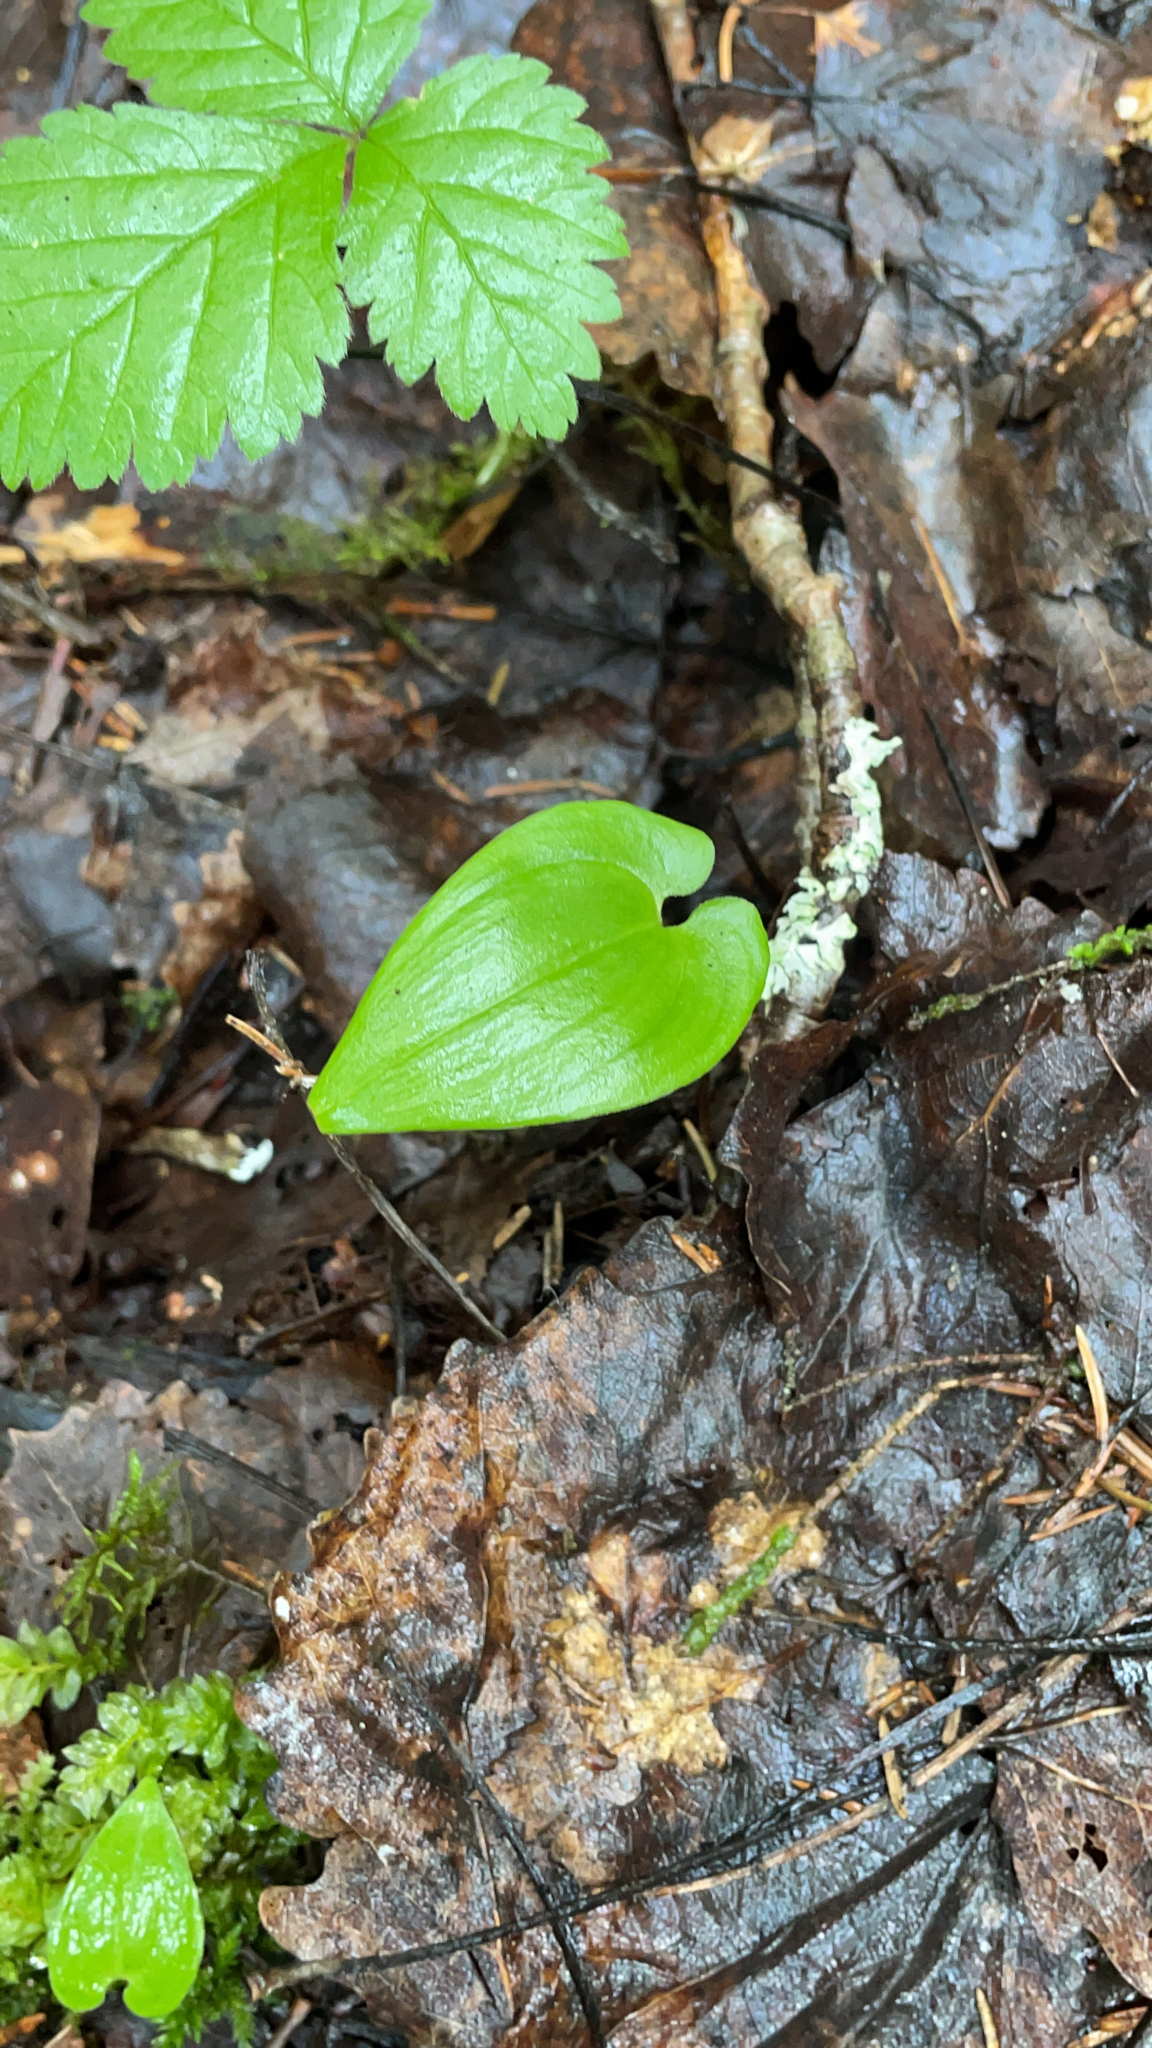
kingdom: Plantae
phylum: Tracheophyta
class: Liliopsida
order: Asparagales
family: Asparagaceae
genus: Maianthemum
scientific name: Maianthemum bifolium
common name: May lily
